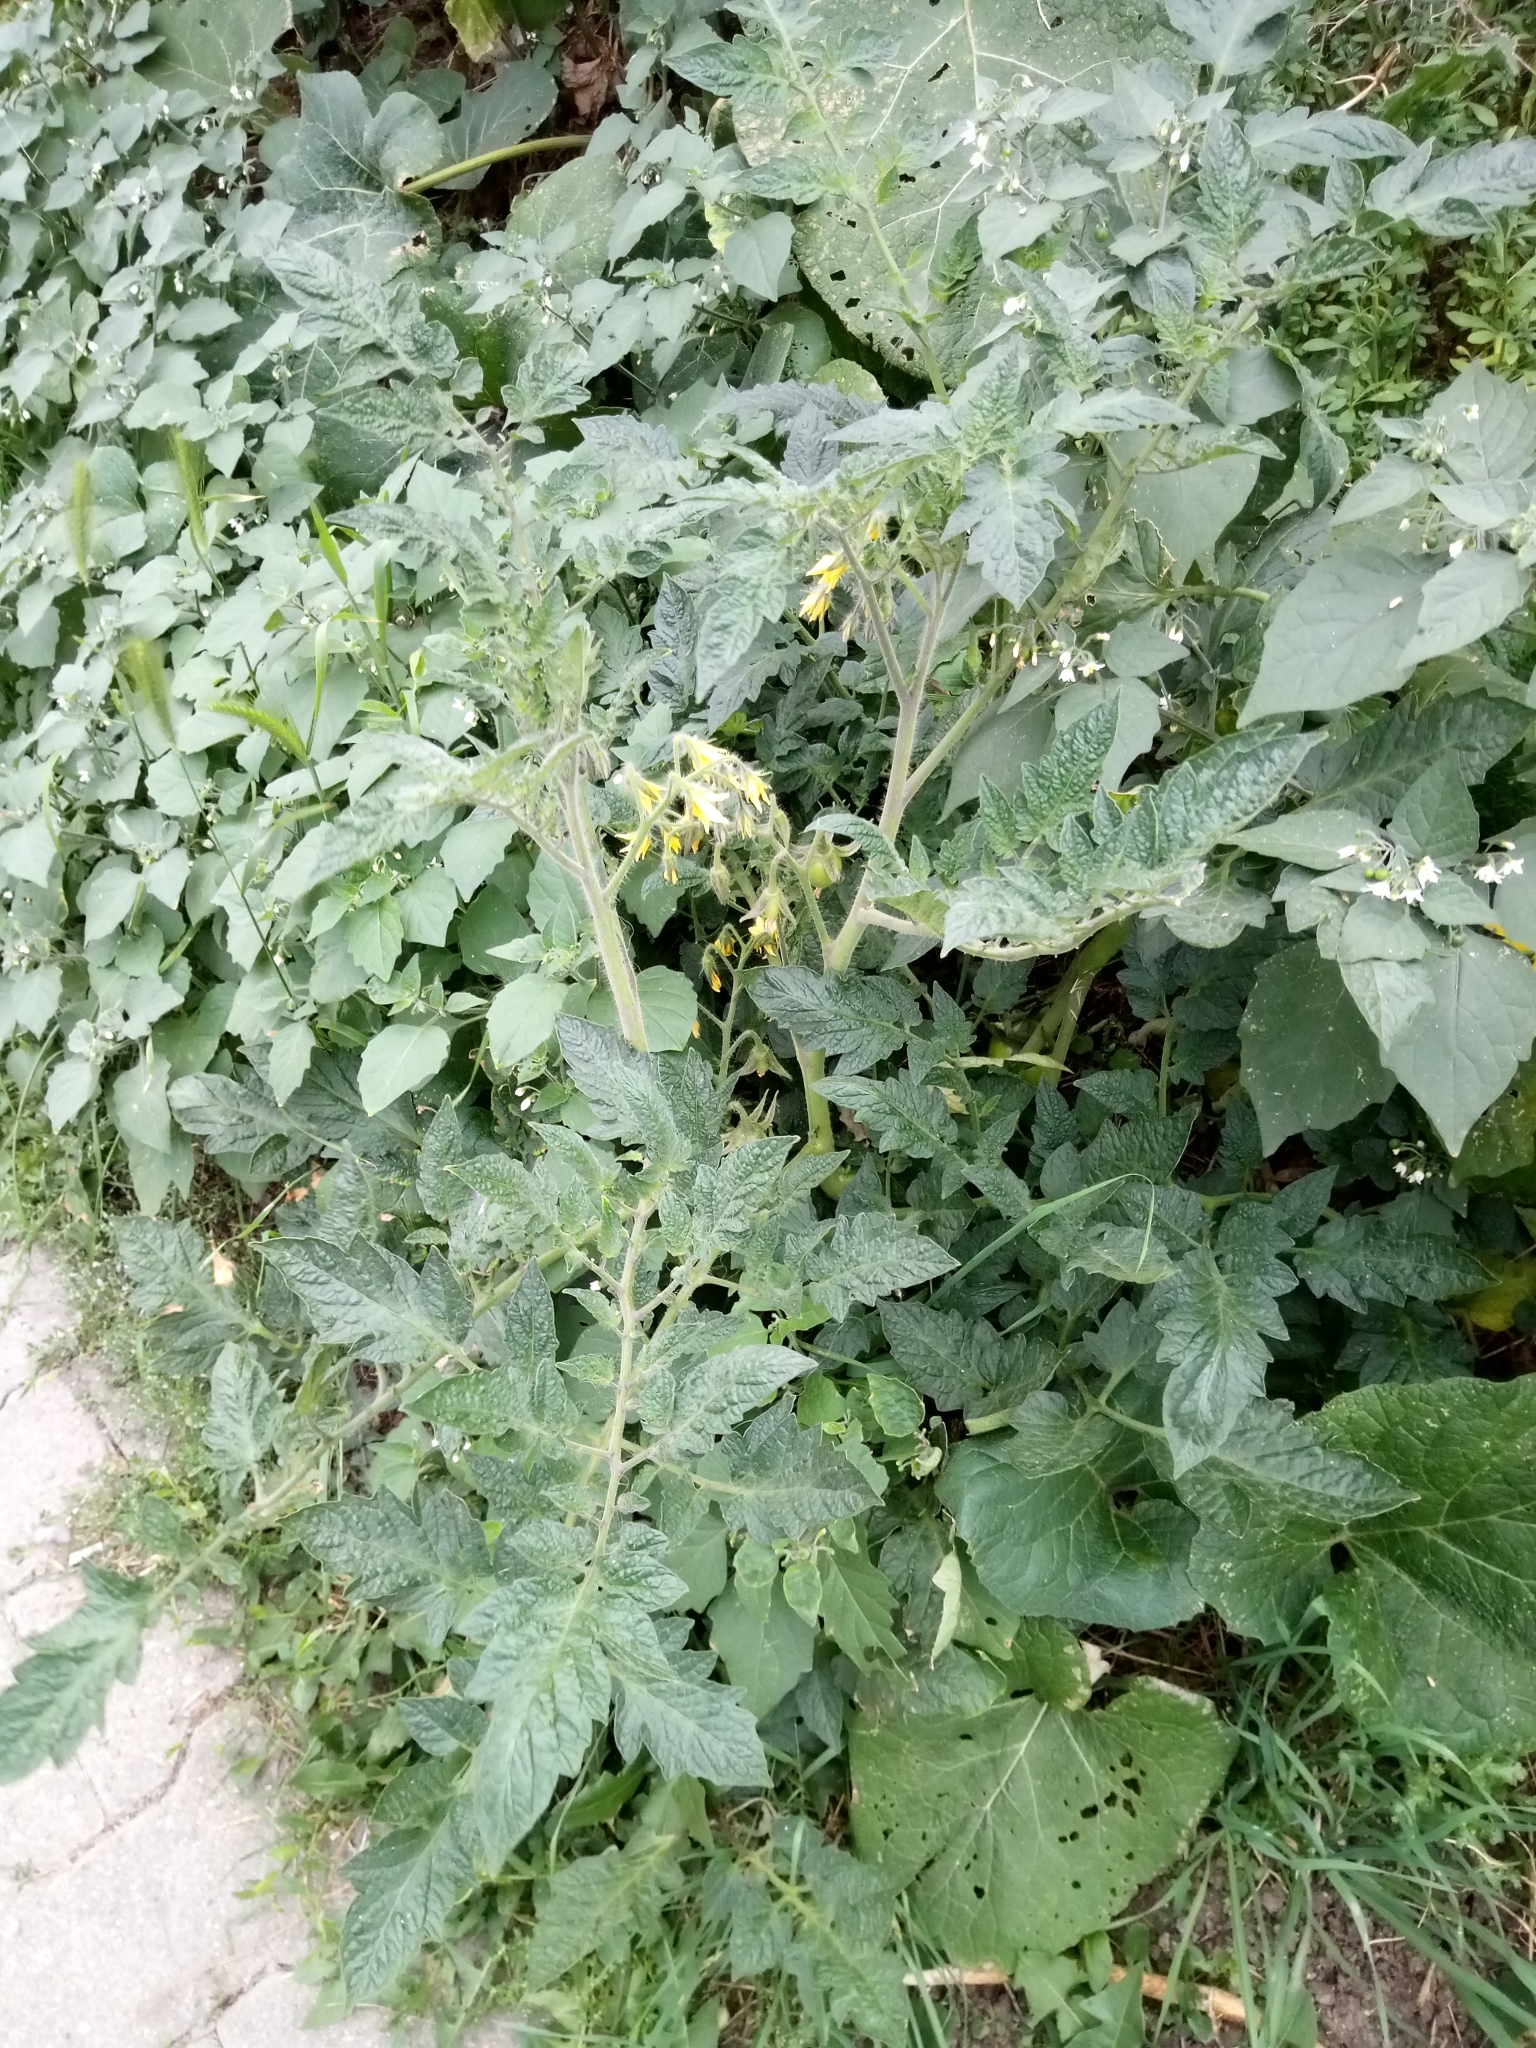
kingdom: Plantae
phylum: Tracheophyta
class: Magnoliopsida
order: Solanales
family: Solanaceae
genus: Solanum
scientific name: Solanum lycopersicum
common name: Garden tomato
